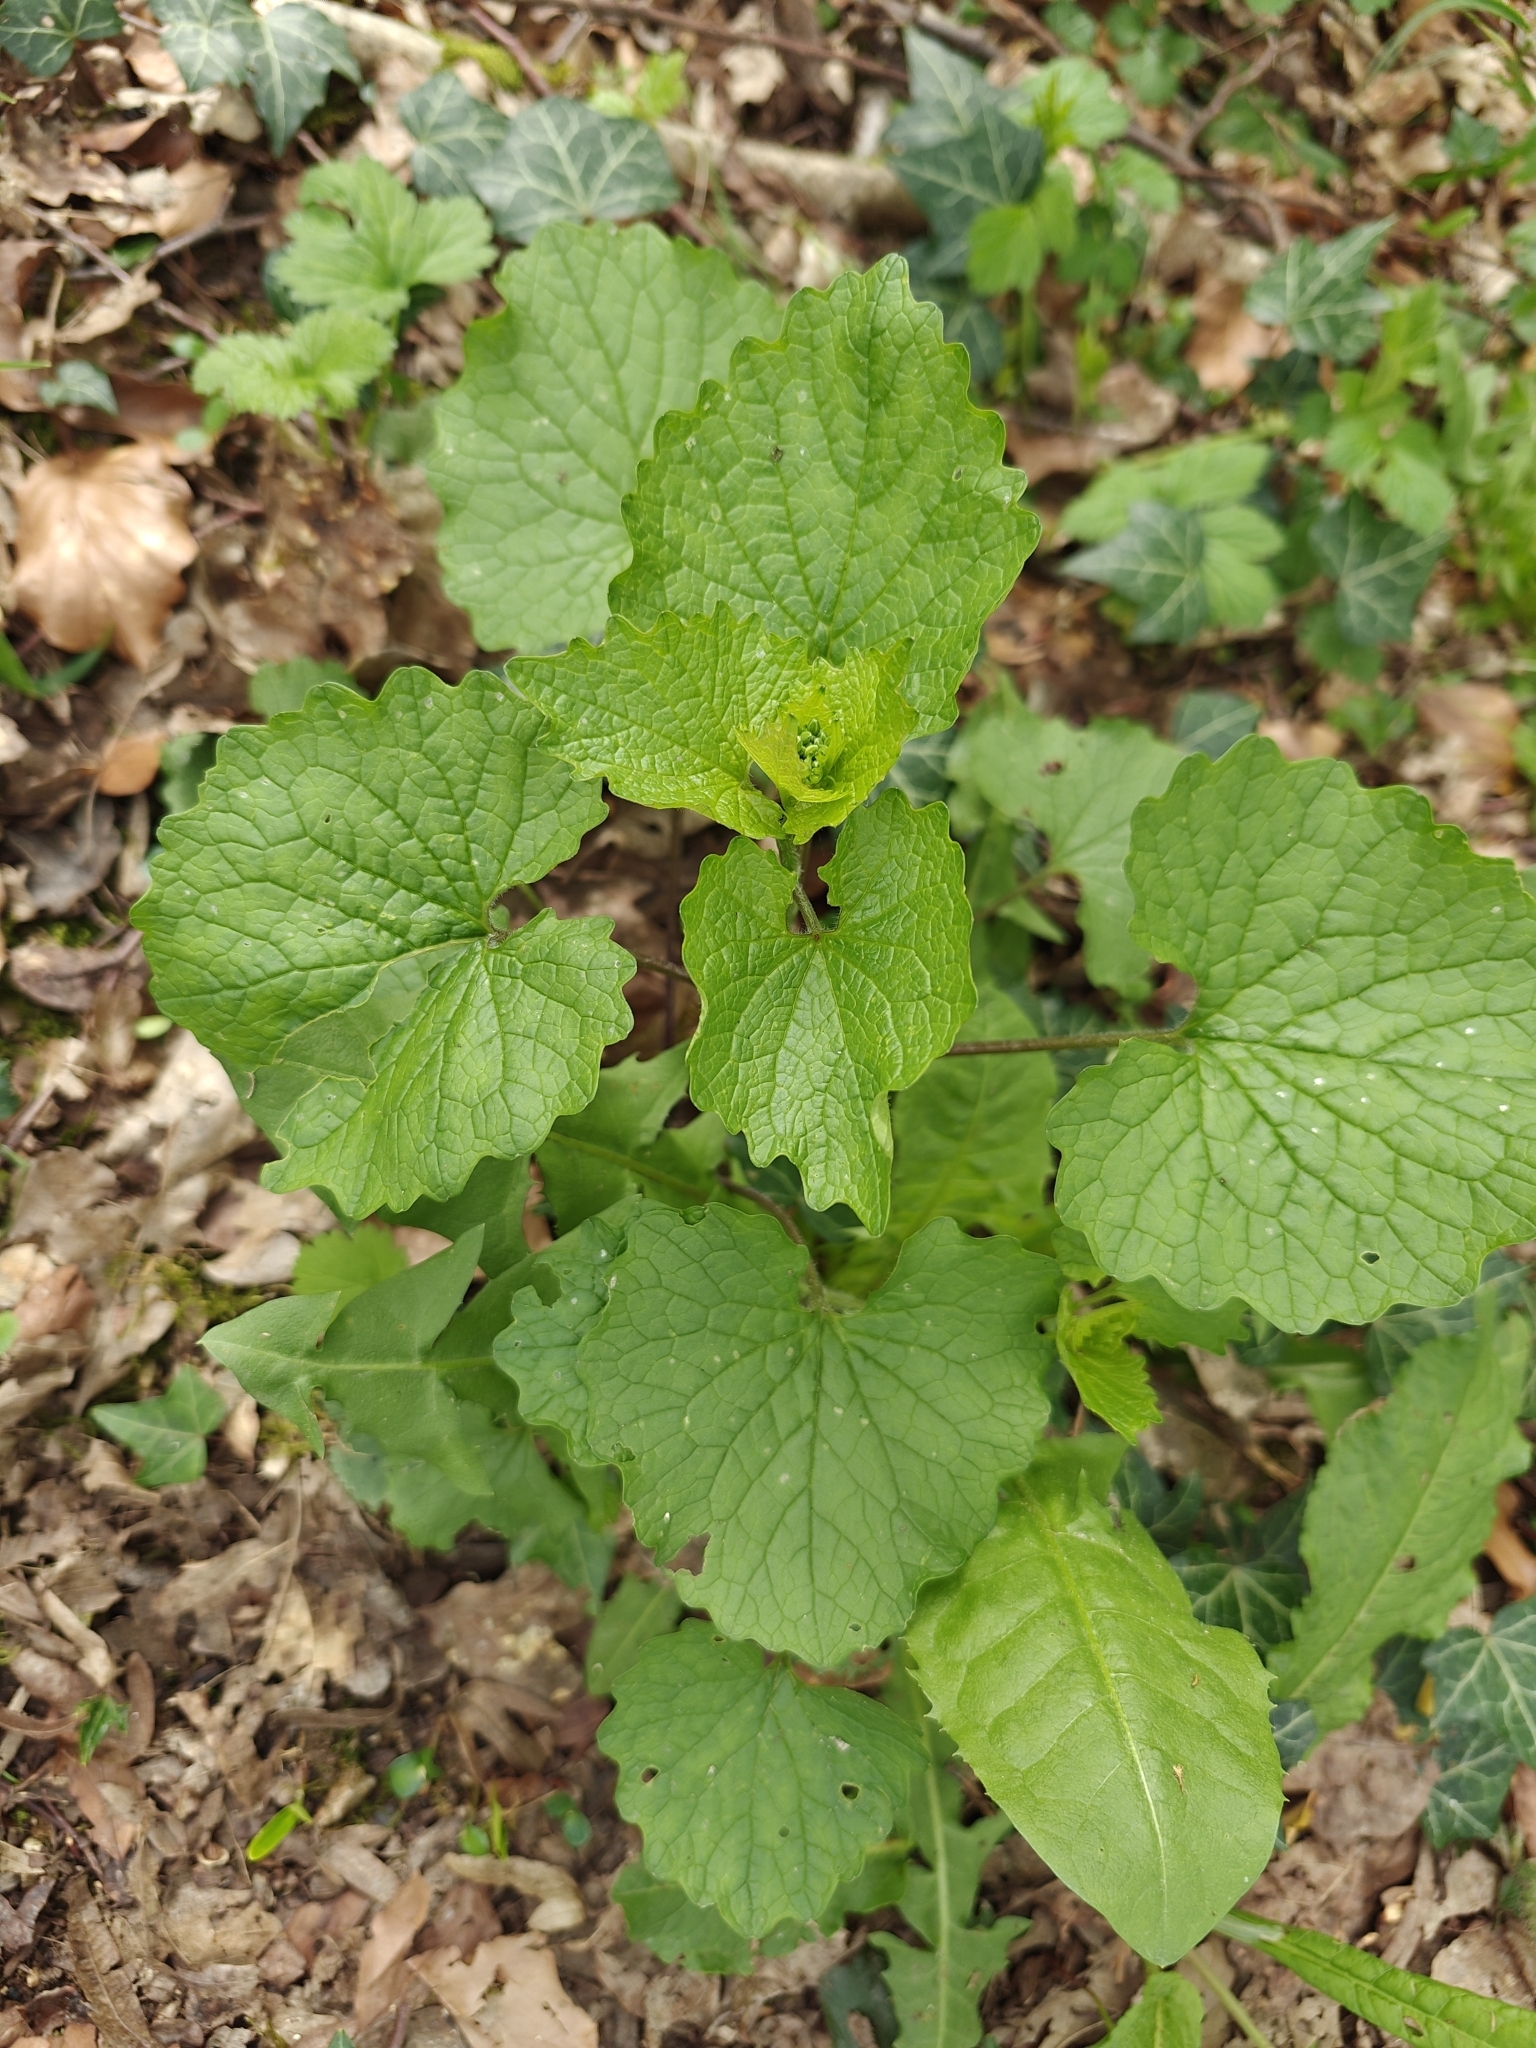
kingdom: Plantae
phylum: Tracheophyta
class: Magnoliopsida
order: Brassicales
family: Brassicaceae
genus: Alliaria
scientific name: Alliaria petiolata
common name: Garlic mustard
